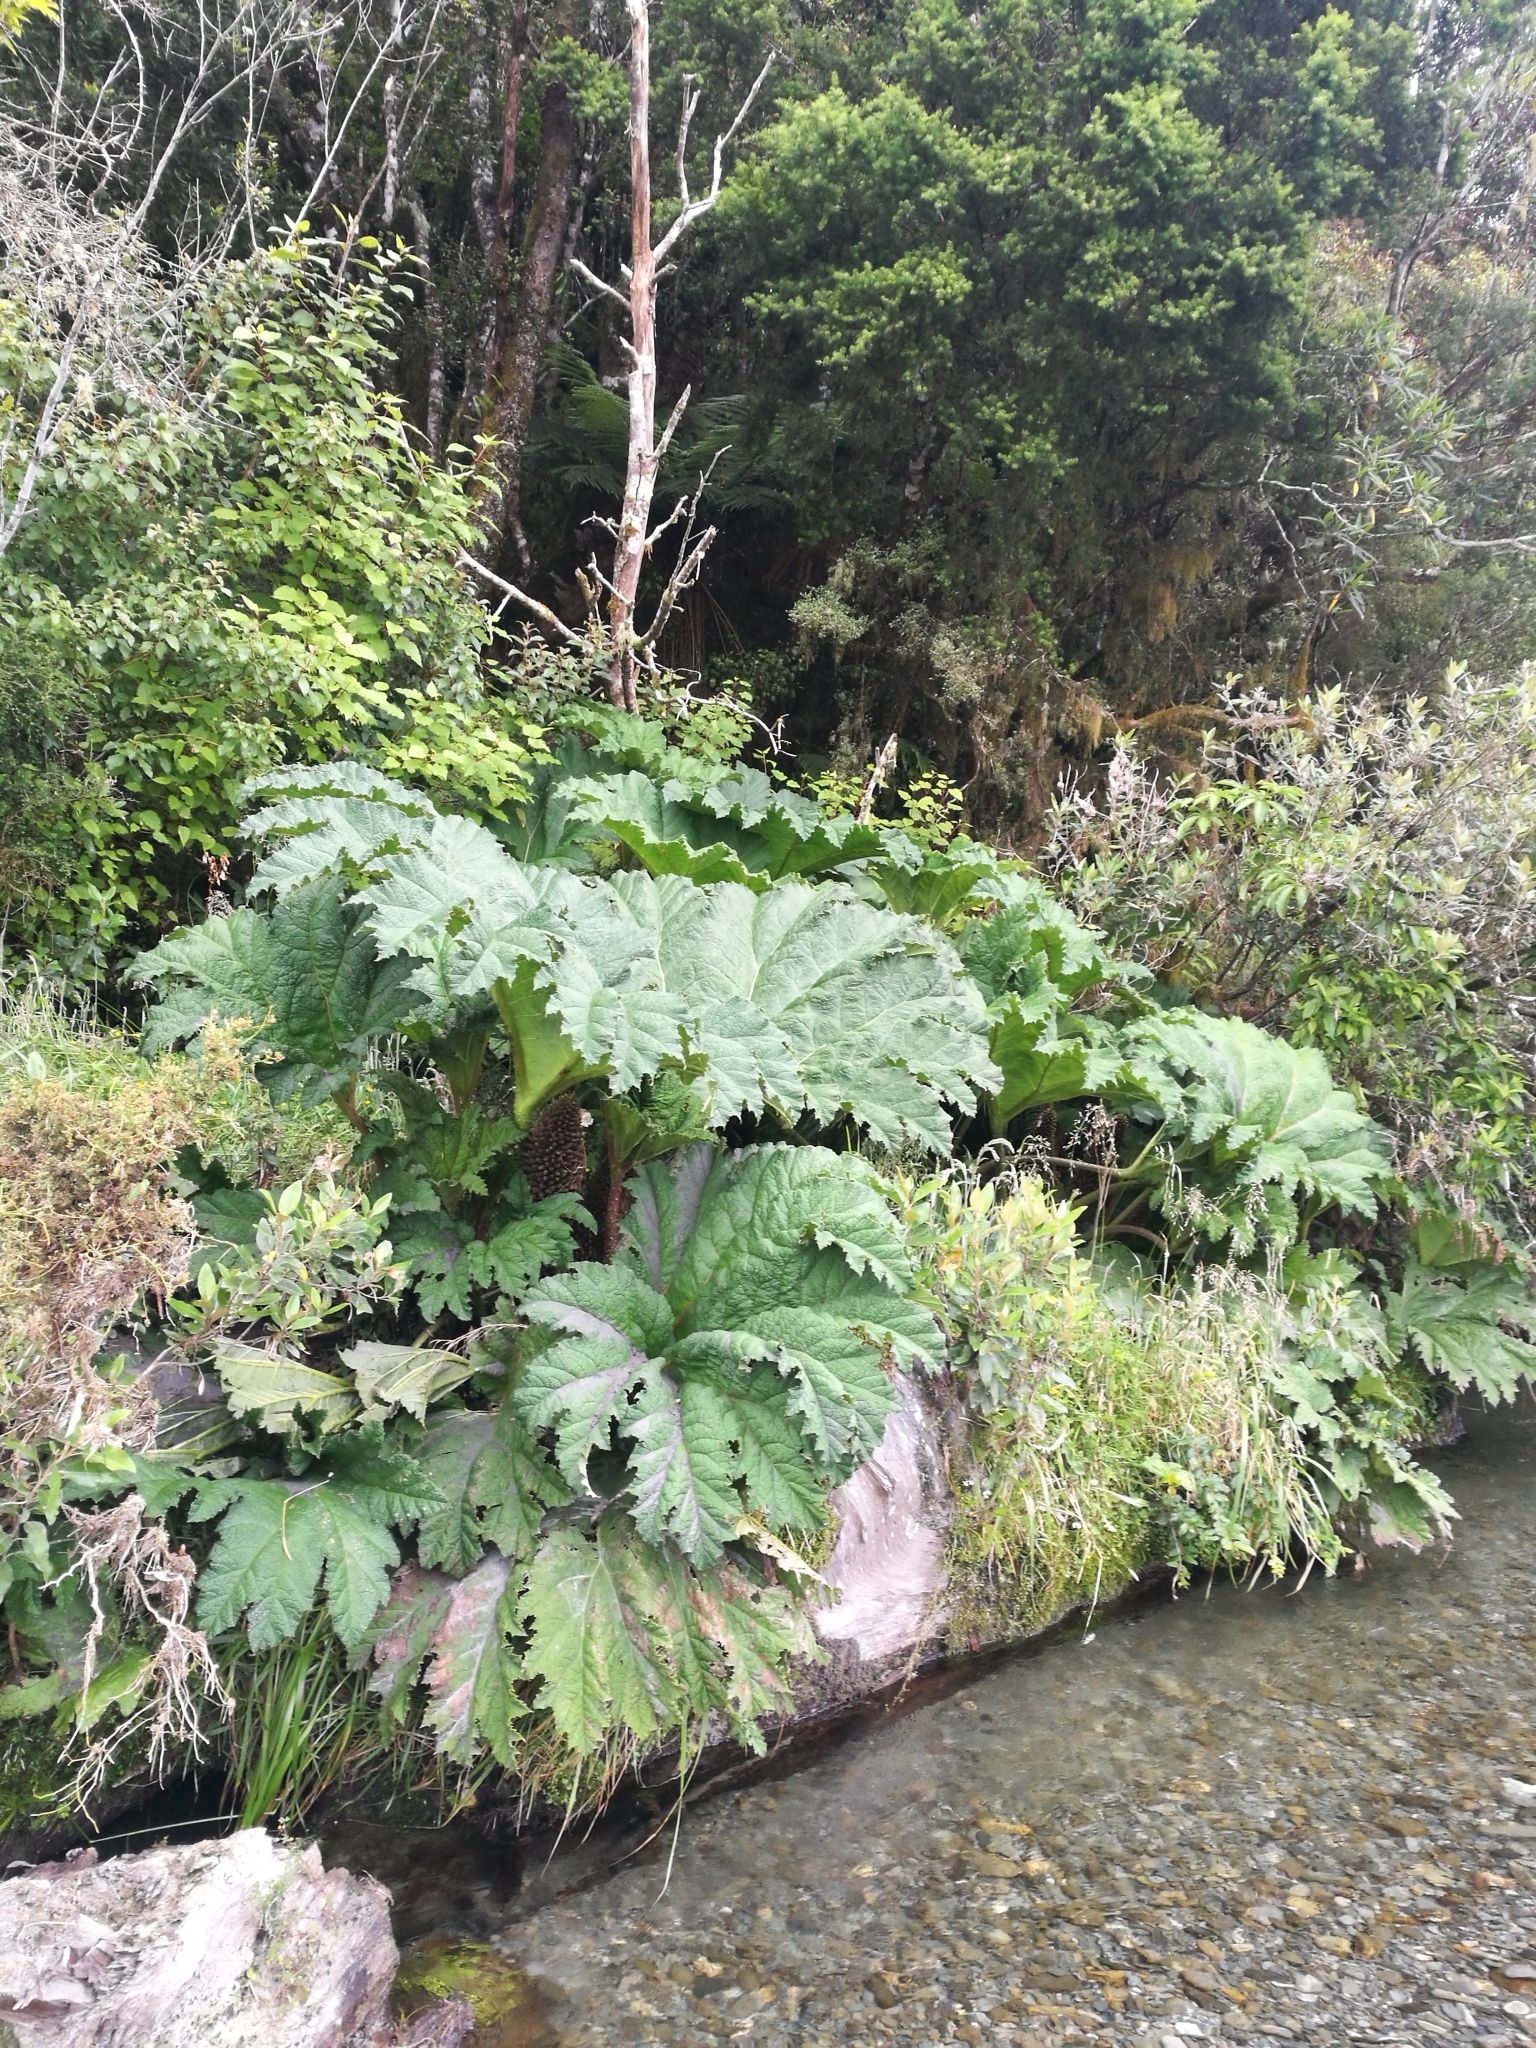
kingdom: Plantae
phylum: Tracheophyta
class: Magnoliopsida
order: Gunnerales
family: Gunneraceae
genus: Gunnera
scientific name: Gunnera tinctoria
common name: Giant-rhubarb
